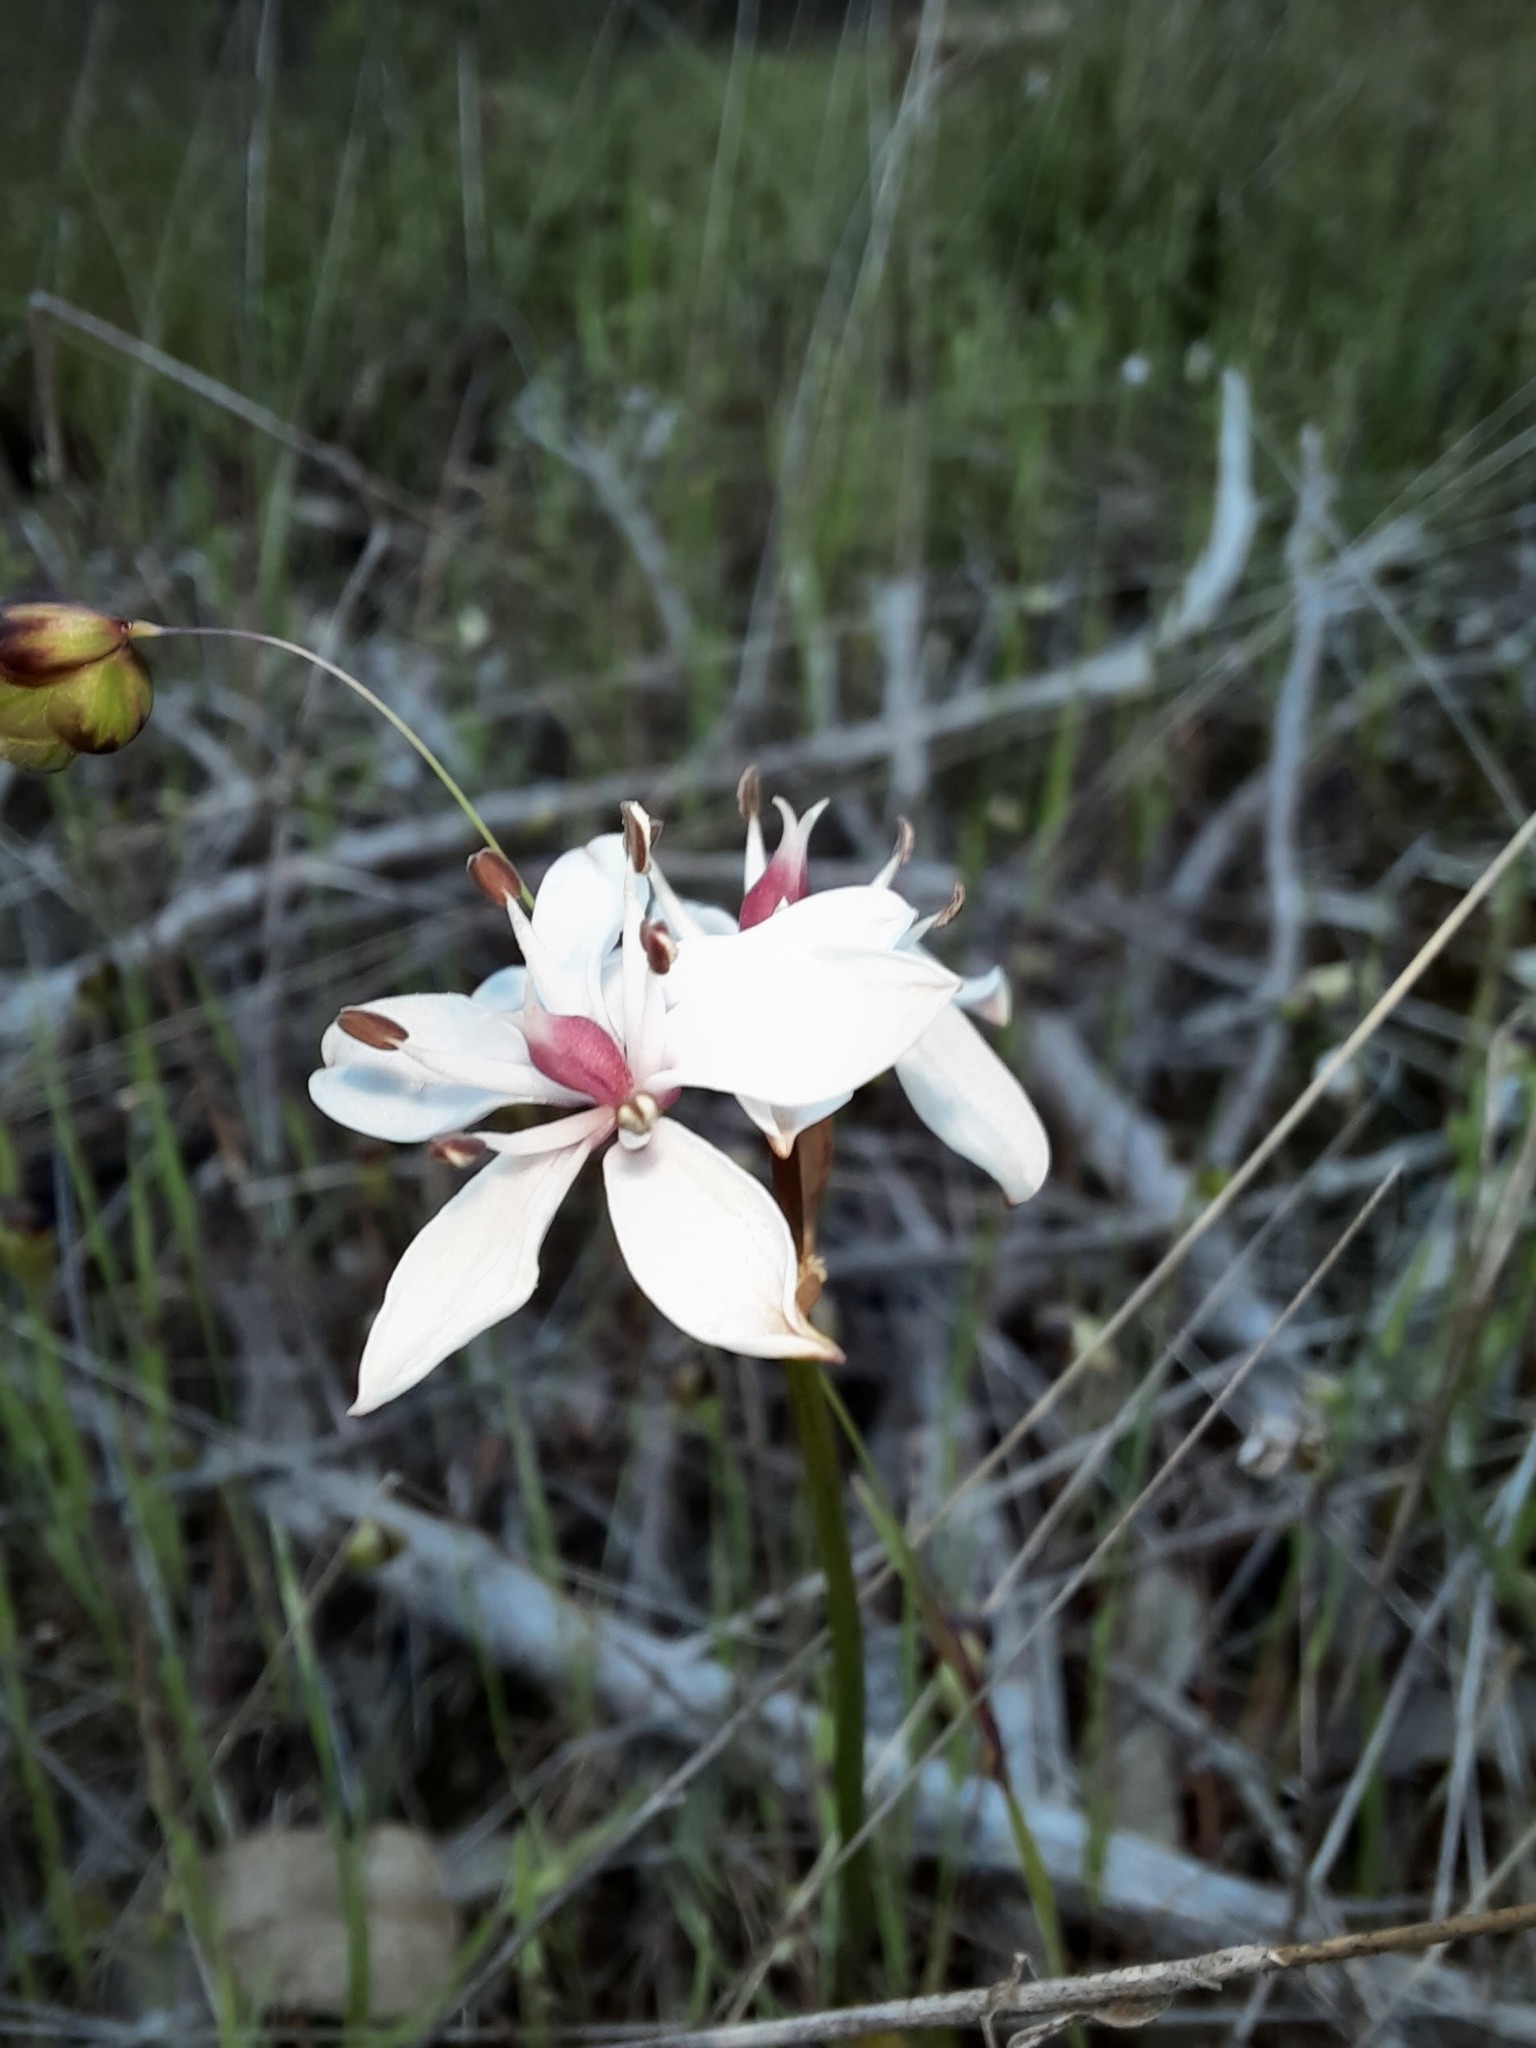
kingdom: Plantae
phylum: Tracheophyta
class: Liliopsida
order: Liliales
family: Colchicaceae
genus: Burchardia
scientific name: Burchardia umbellata
